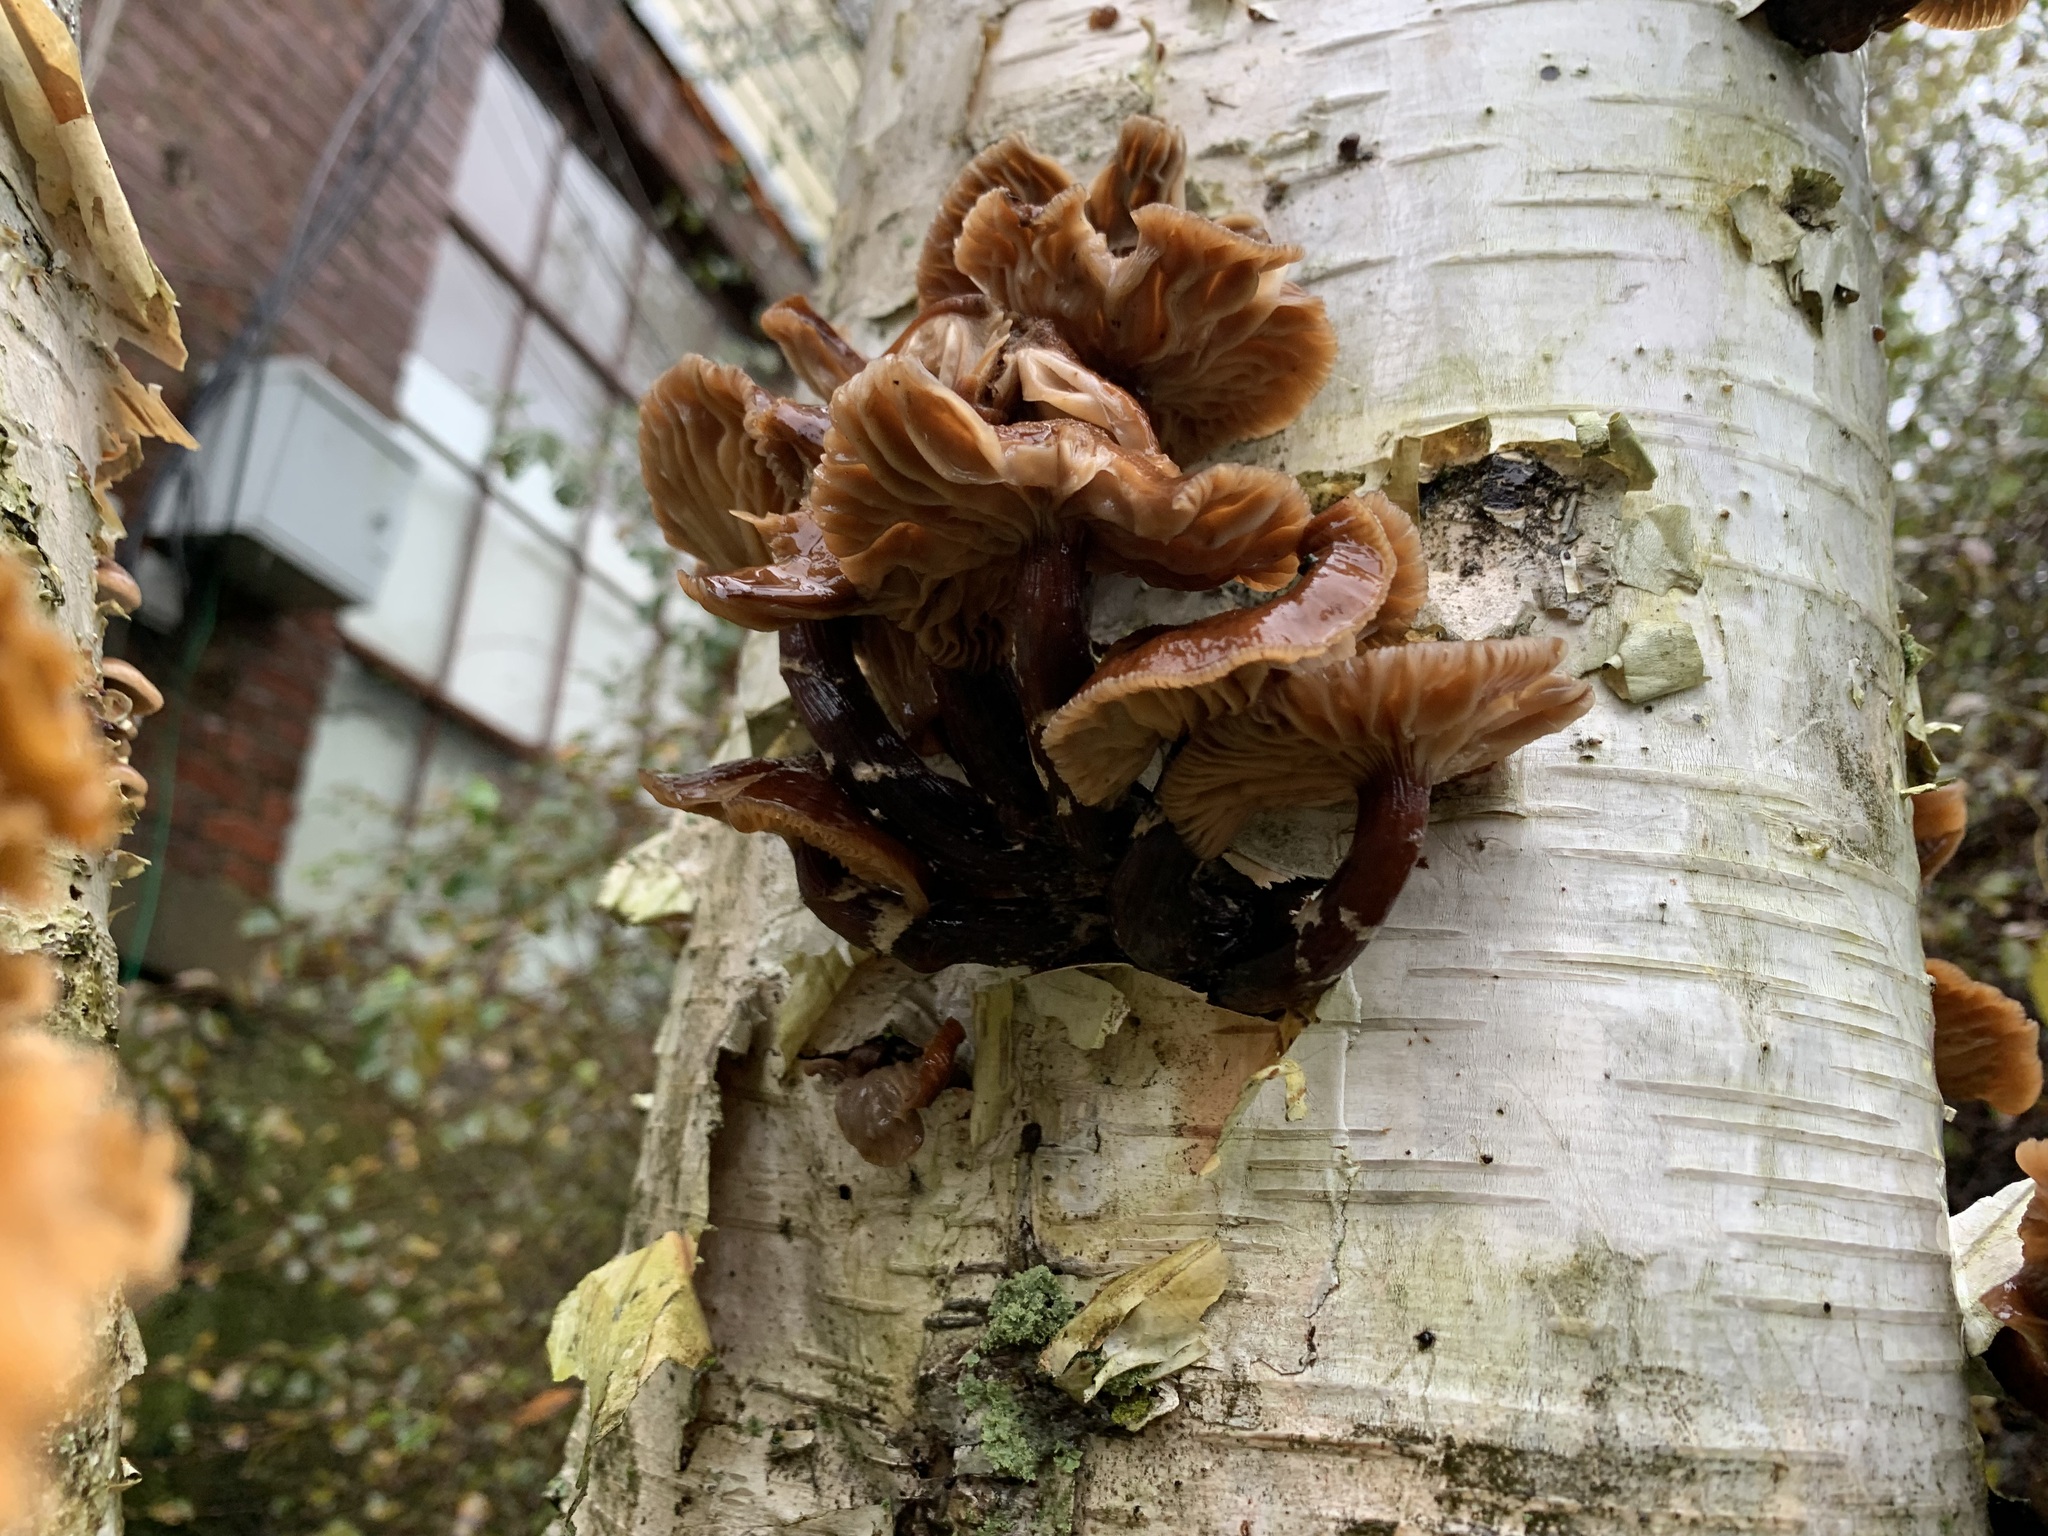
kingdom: Fungi
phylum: Basidiomycota
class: Agaricomycetes
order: Agaricales
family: Physalacriaceae
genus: Flammulina
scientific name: Flammulina velutipes
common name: Velvet shank
